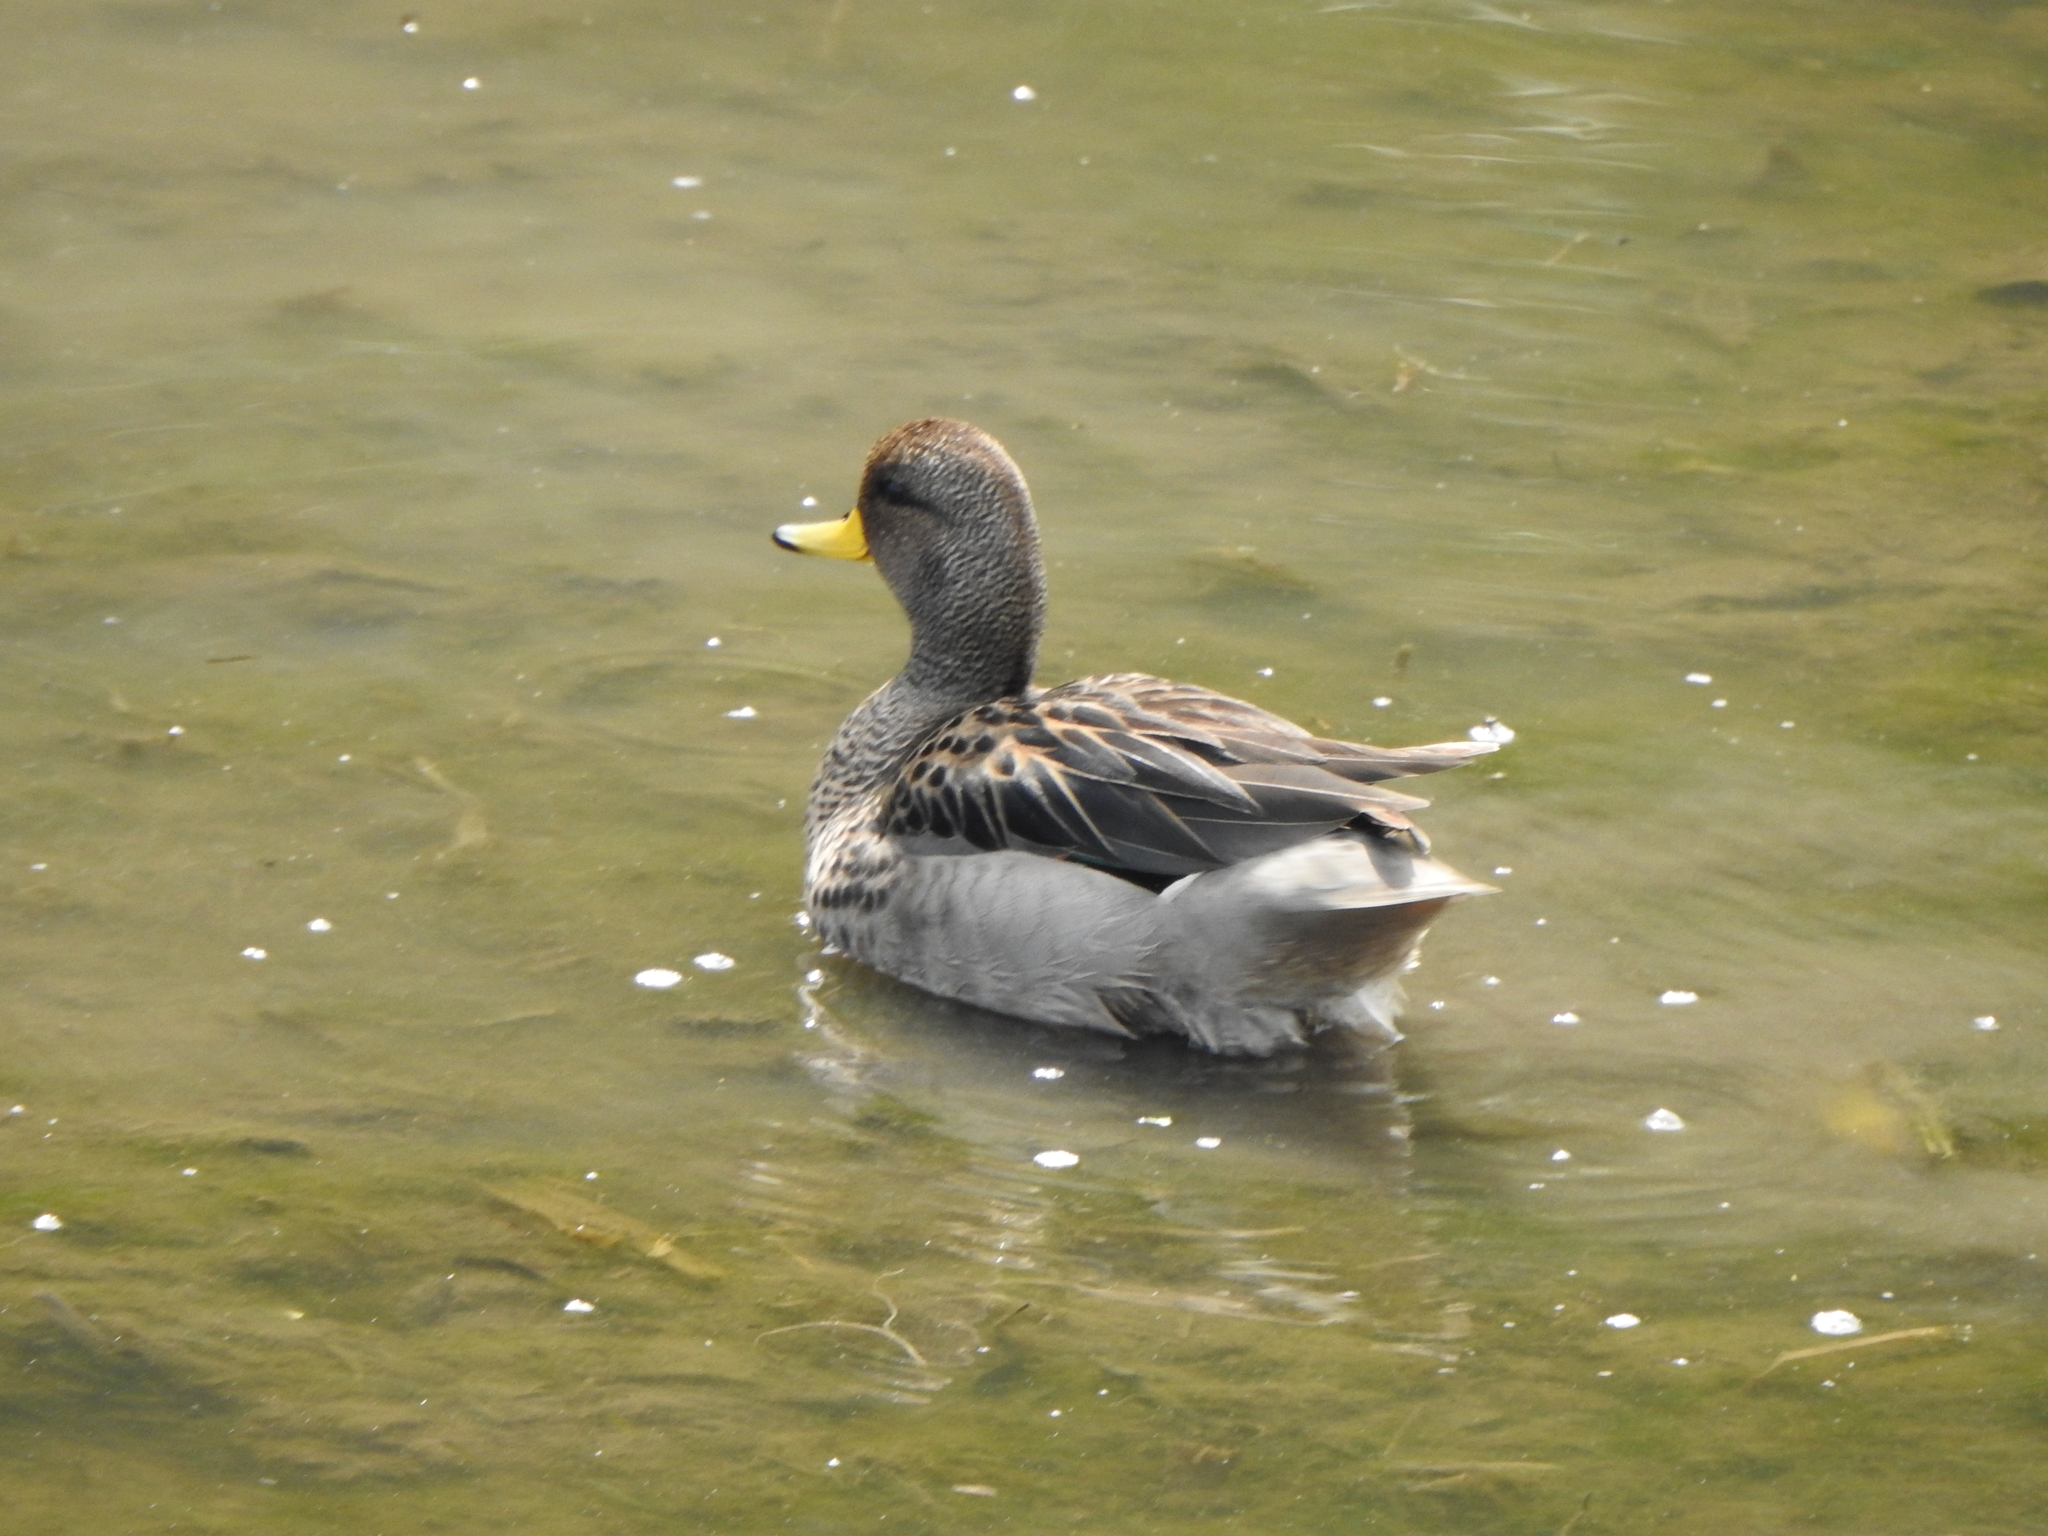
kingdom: Animalia
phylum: Chordata
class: Aves
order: Anseriformes
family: Anatidae
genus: Anas
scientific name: Anas flavirostris
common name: Yellow-billed teal
